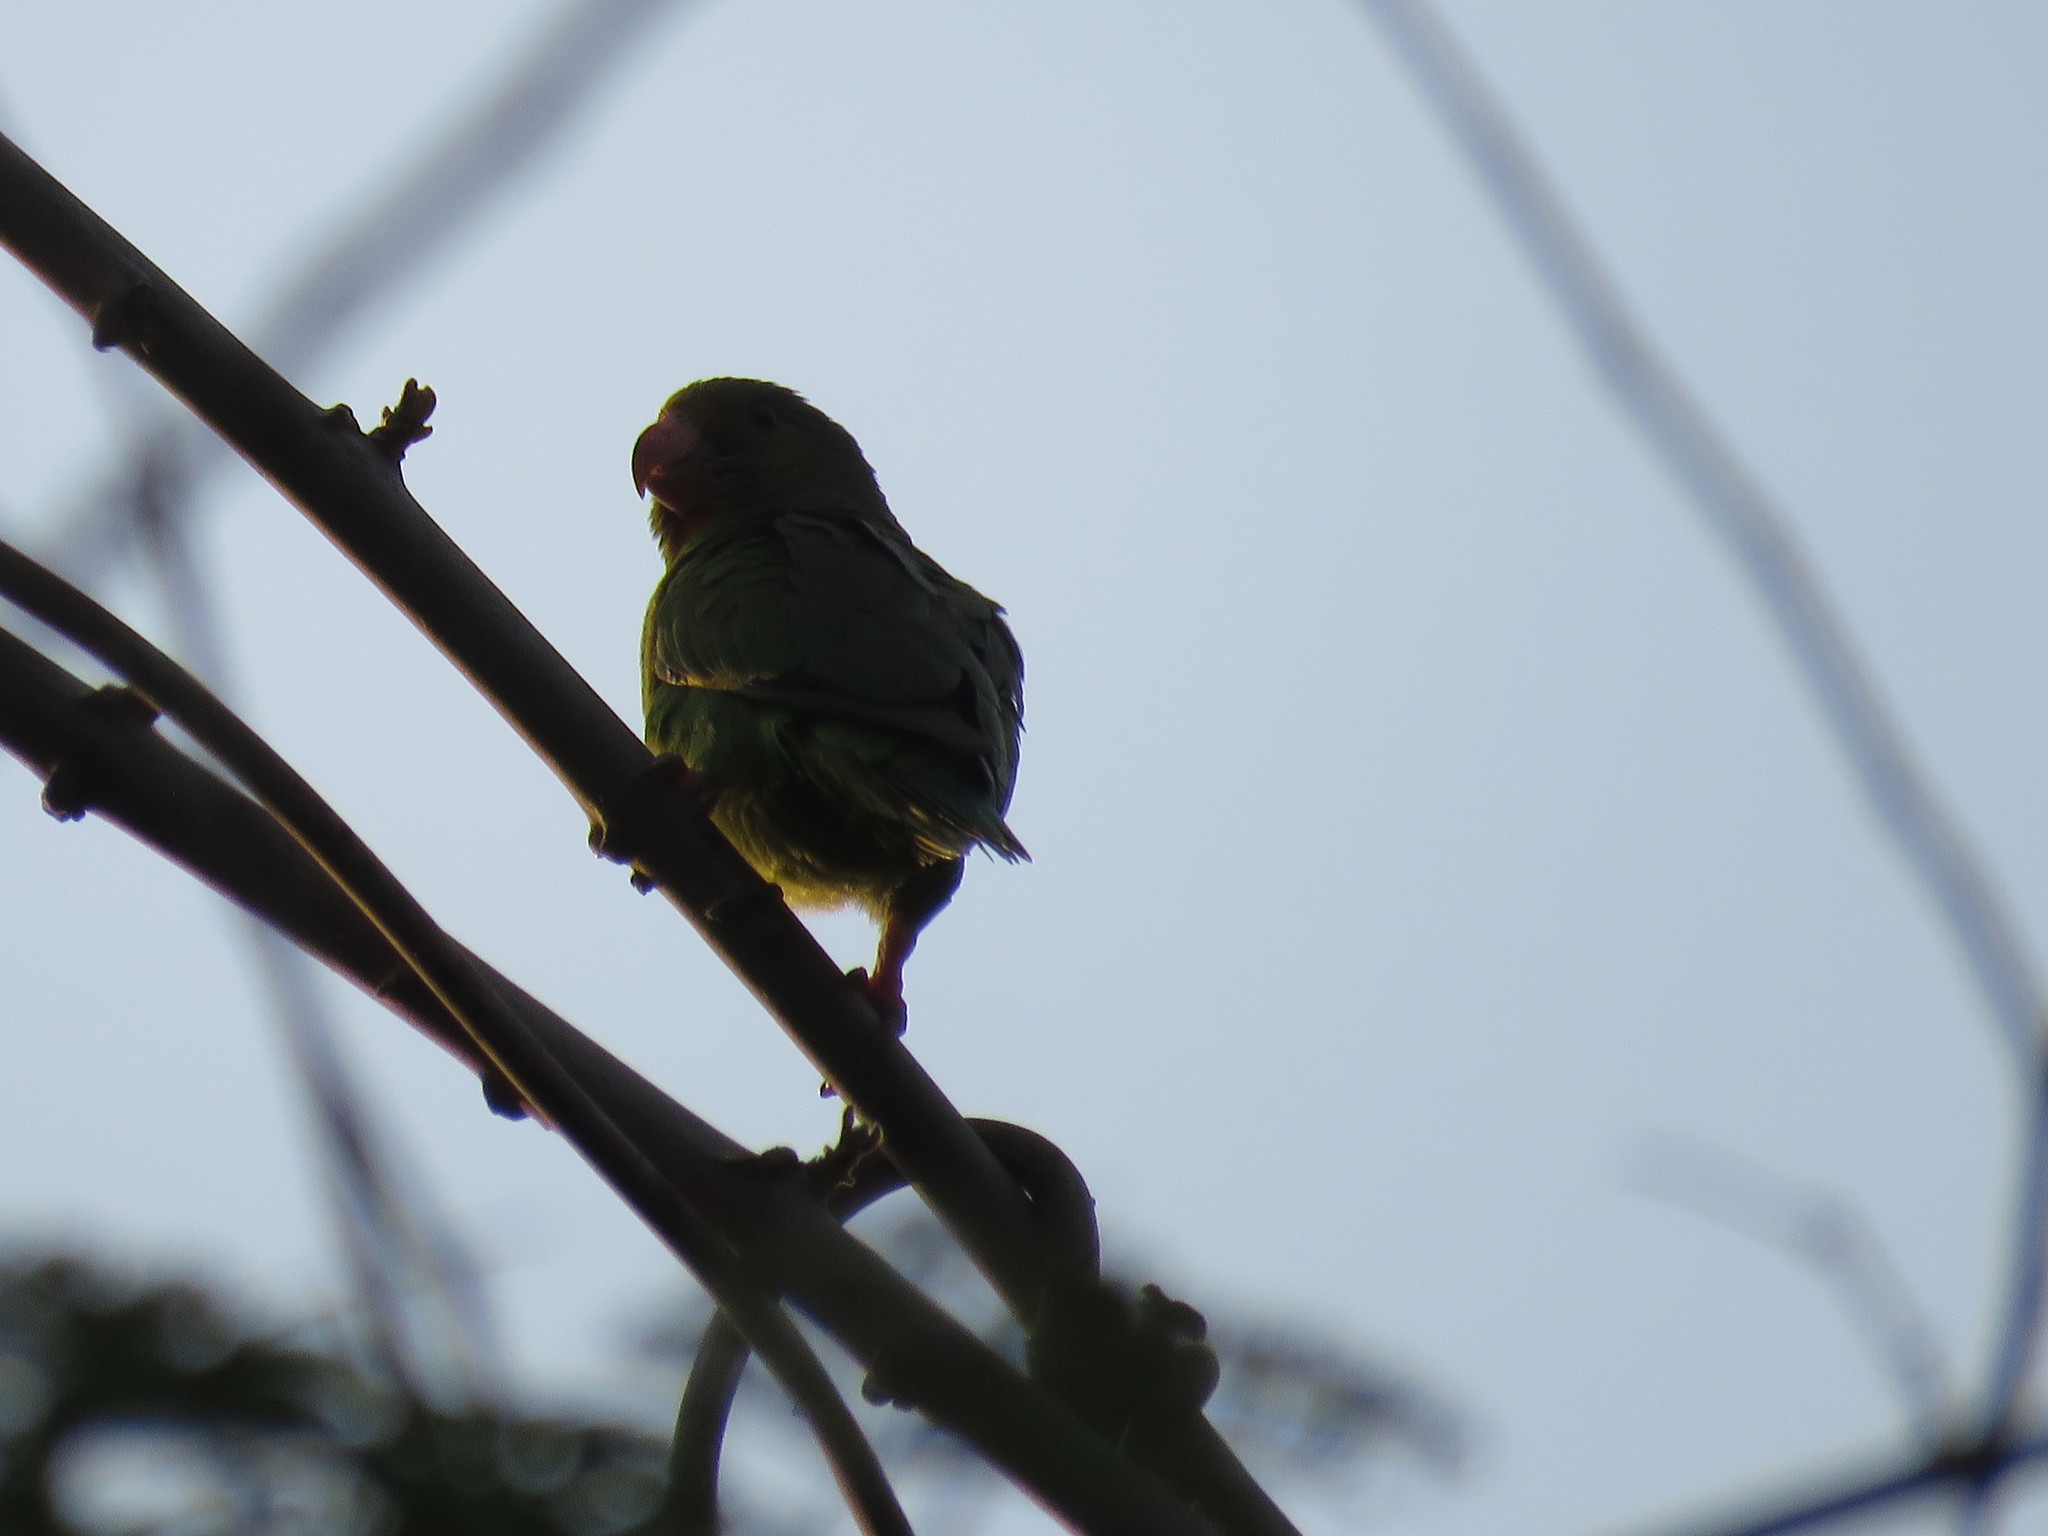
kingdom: Animalia
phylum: Chordata
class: Aves
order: Psittaciformes
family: Psittacidae
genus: Brotogeris
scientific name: Brotogeris cyanoptera
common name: Cobalt-winged parakeet
